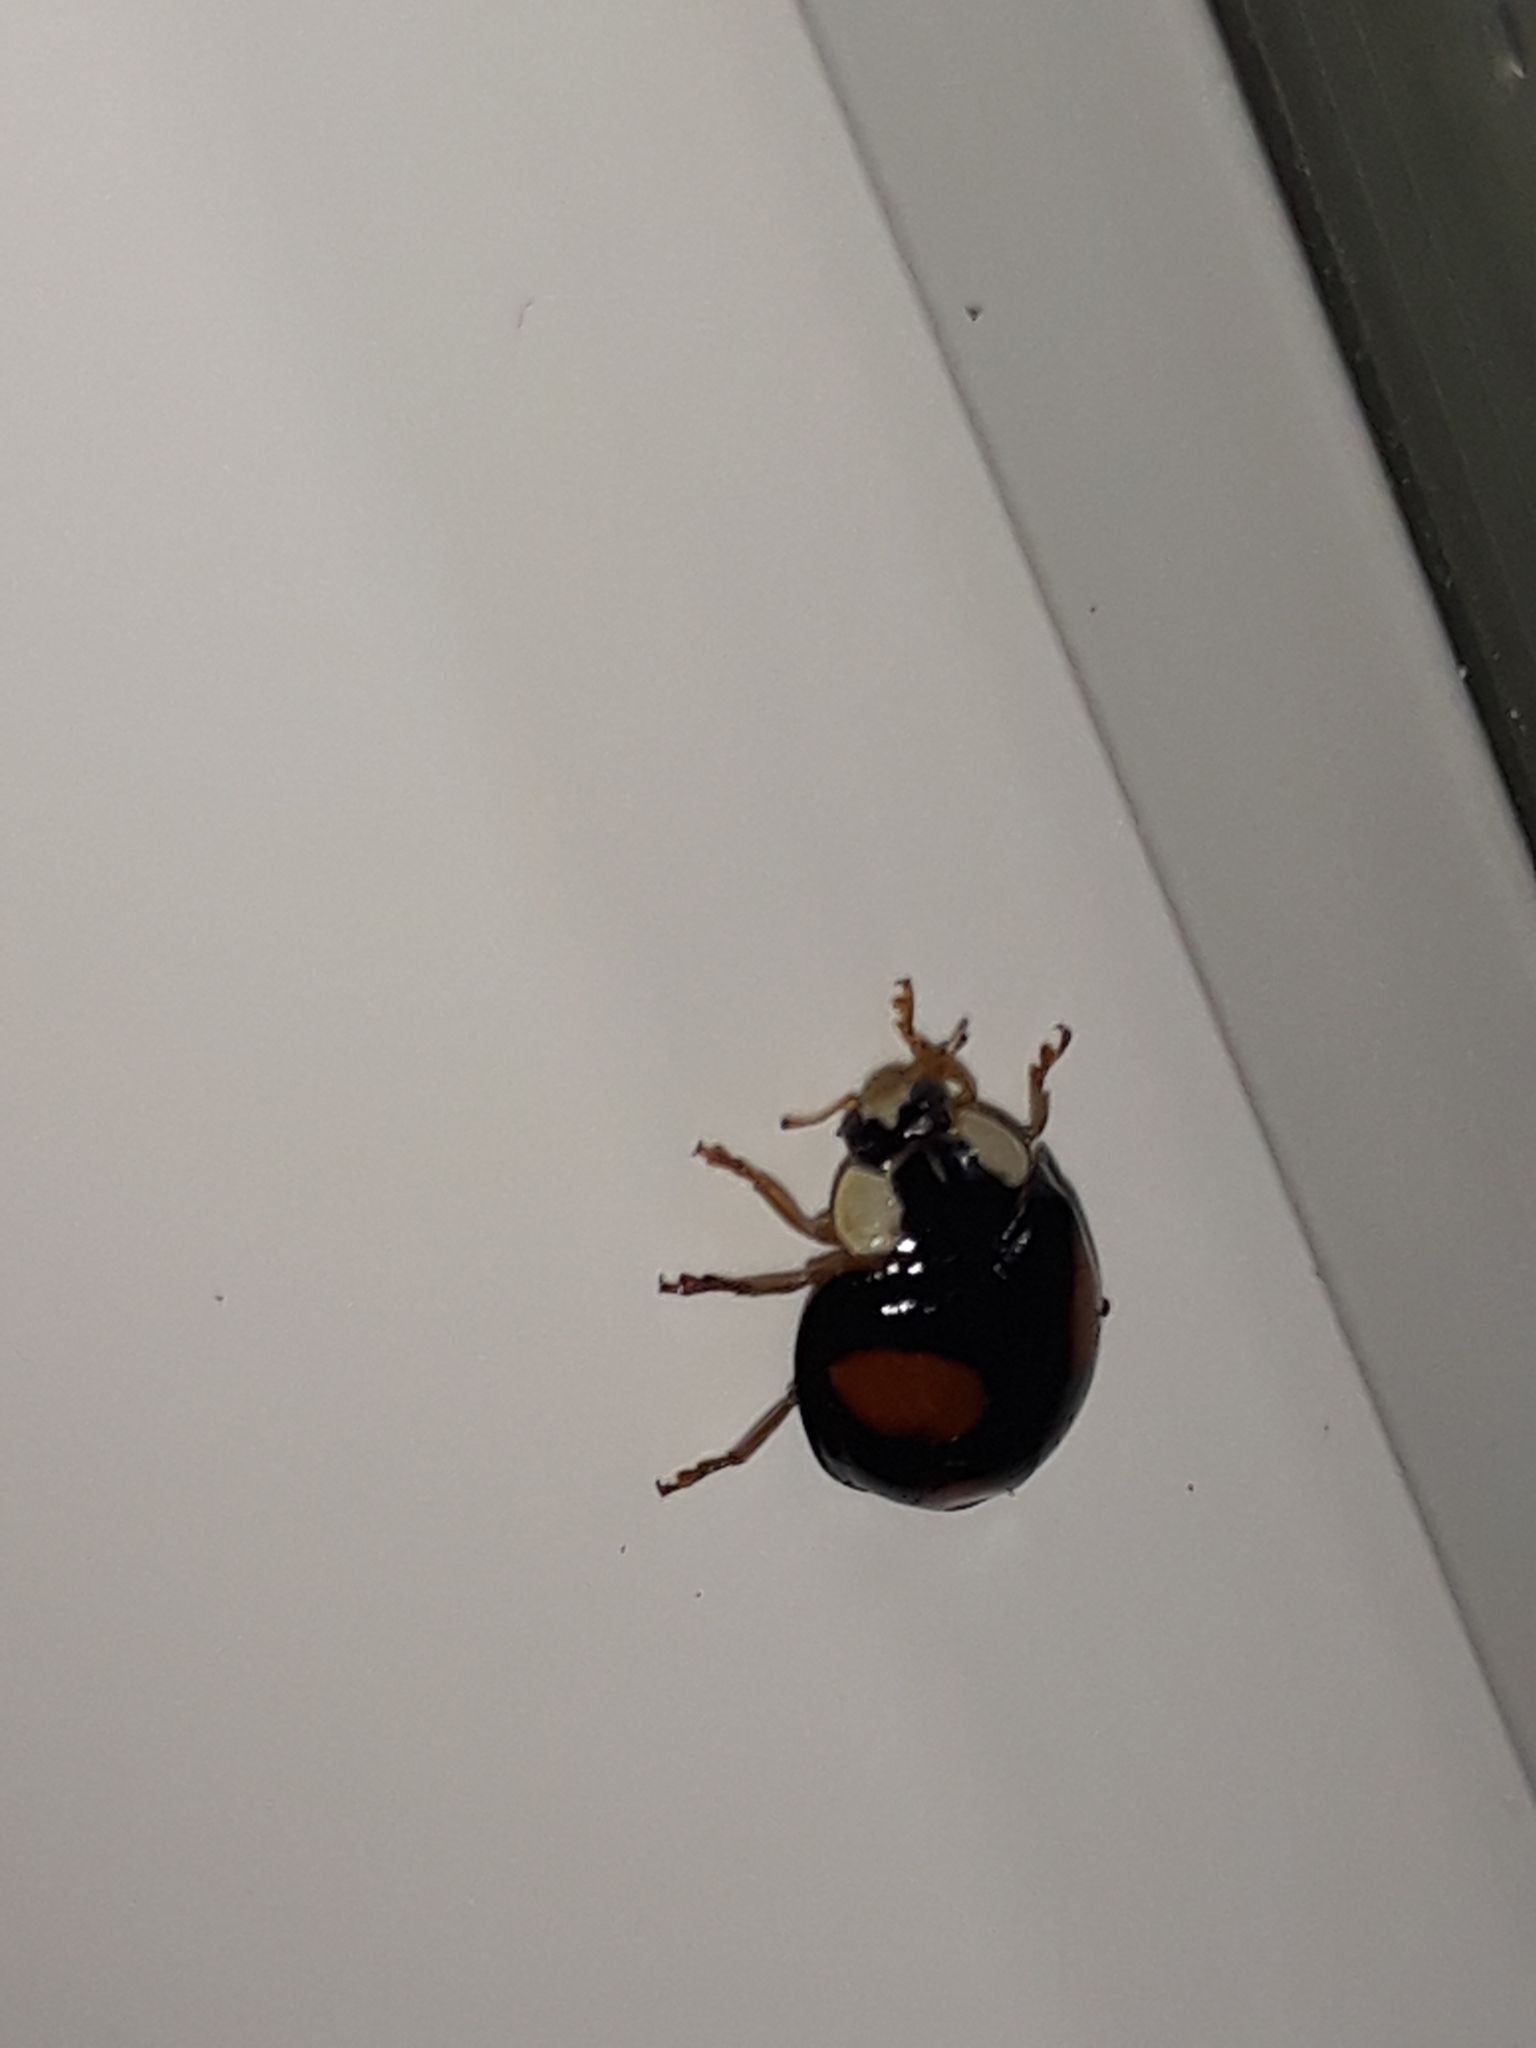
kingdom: Animalia
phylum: Arthropoda
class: Insecta
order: Coleoptera
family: Coccinellidae
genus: Harmonia
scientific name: Harmonia axyridis
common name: Harlequin ladybird
